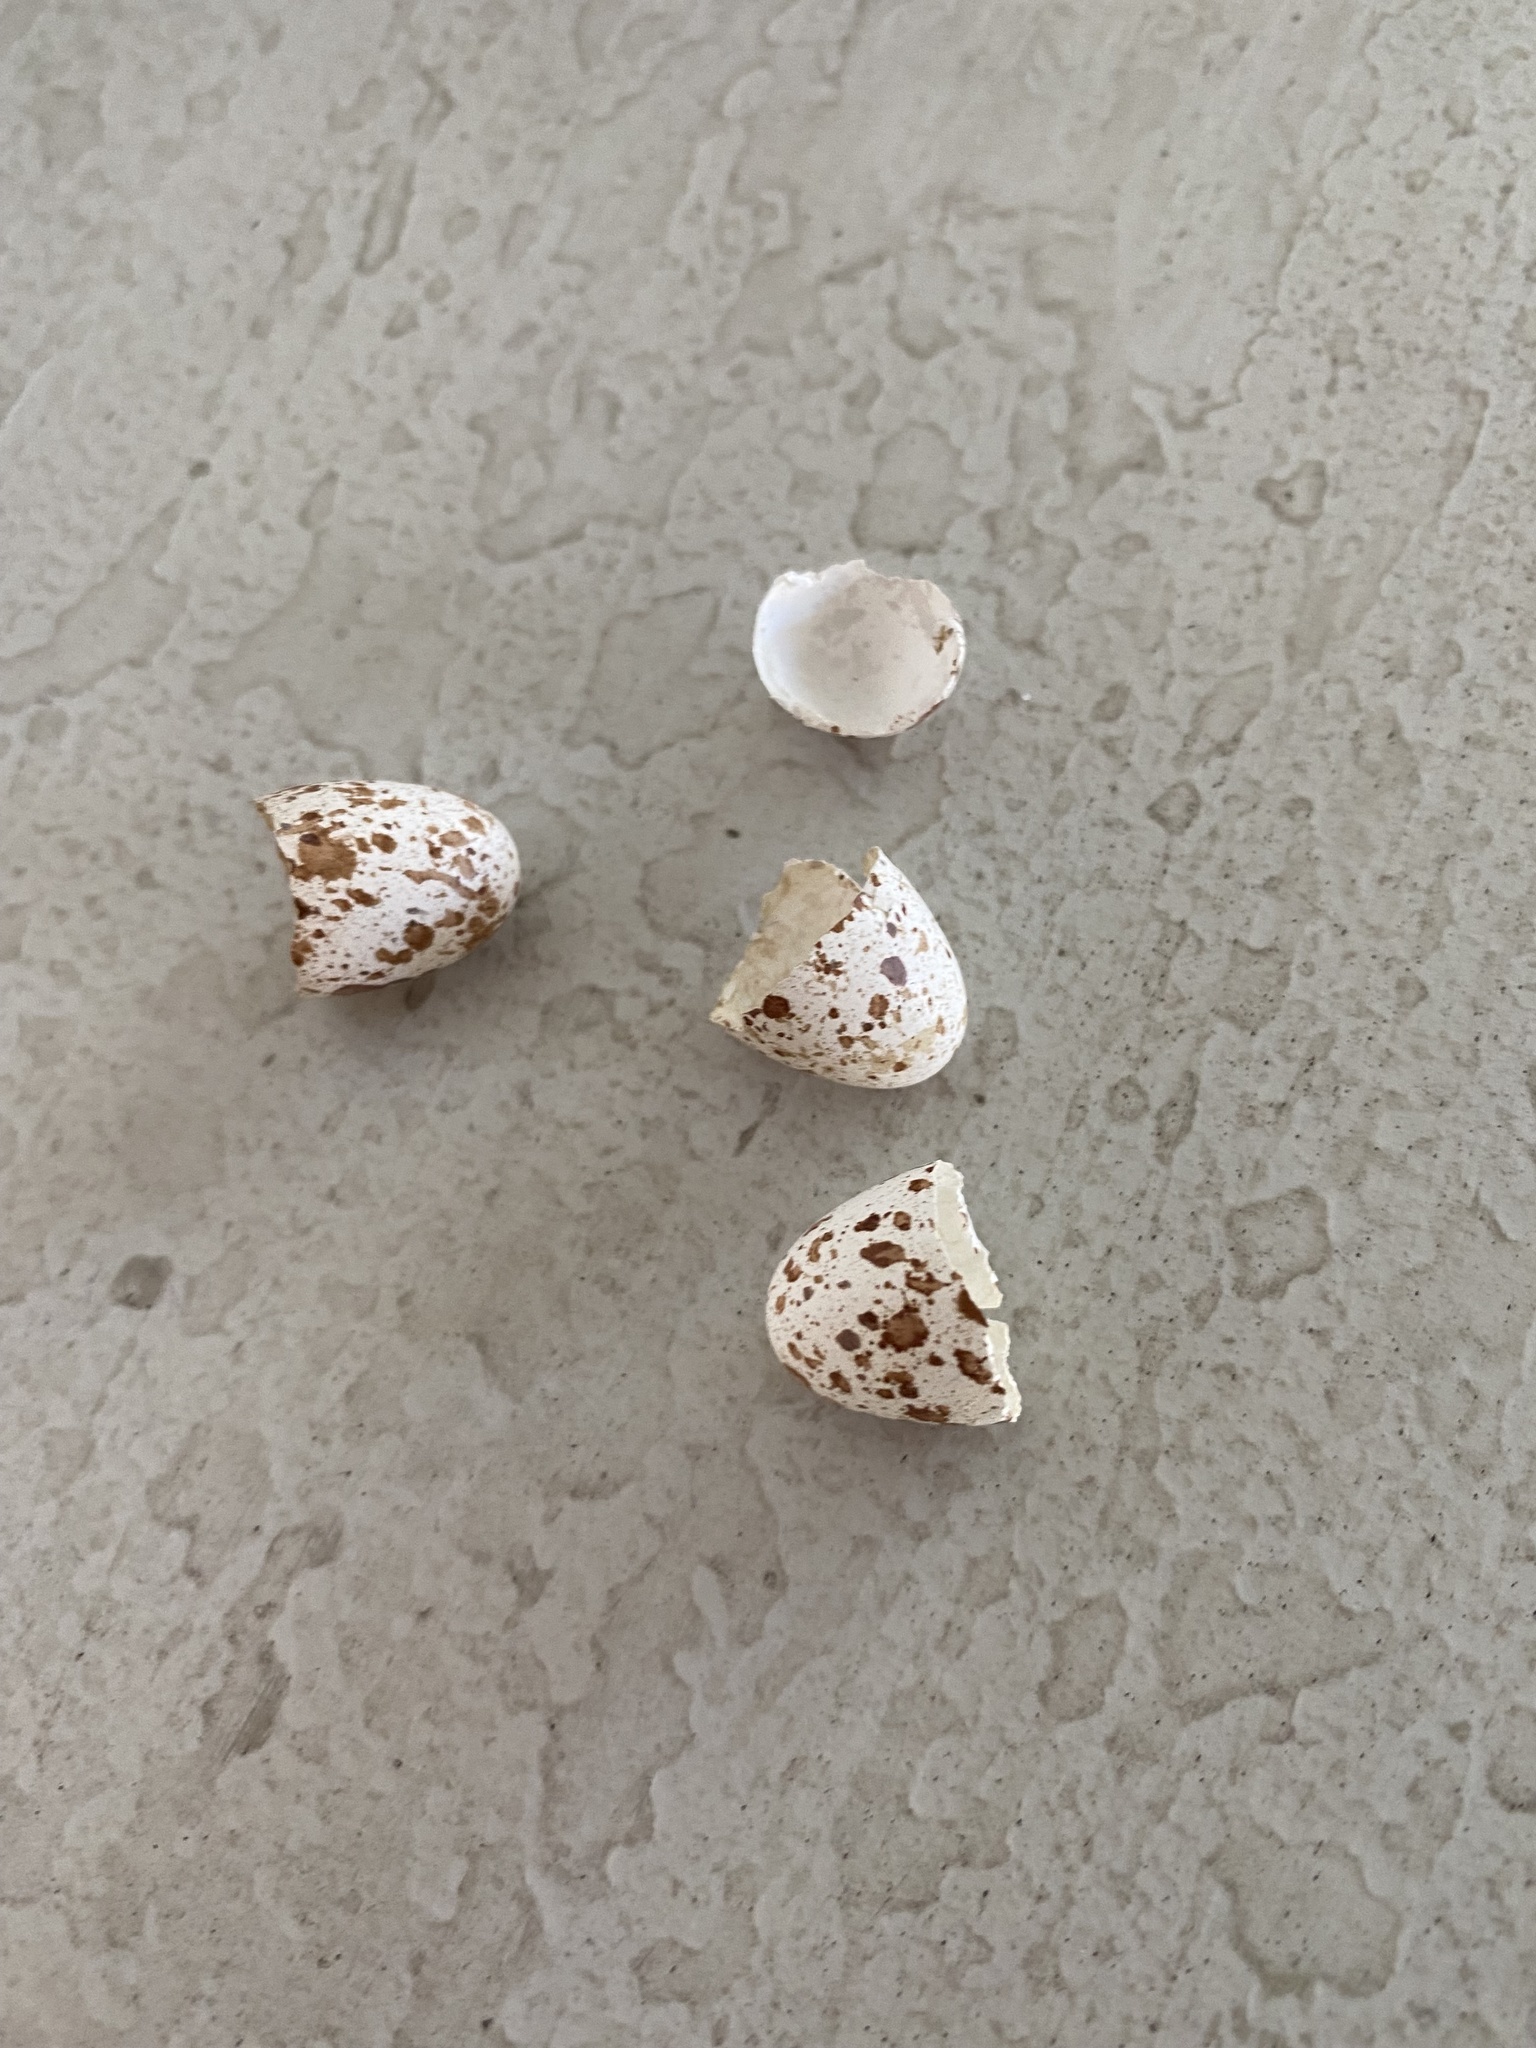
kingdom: Animalia
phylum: Chordata
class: Aves
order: Passeriformes
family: Hirundinidae
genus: Hirundo
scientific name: Hirundo rustica
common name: Barn swallow
